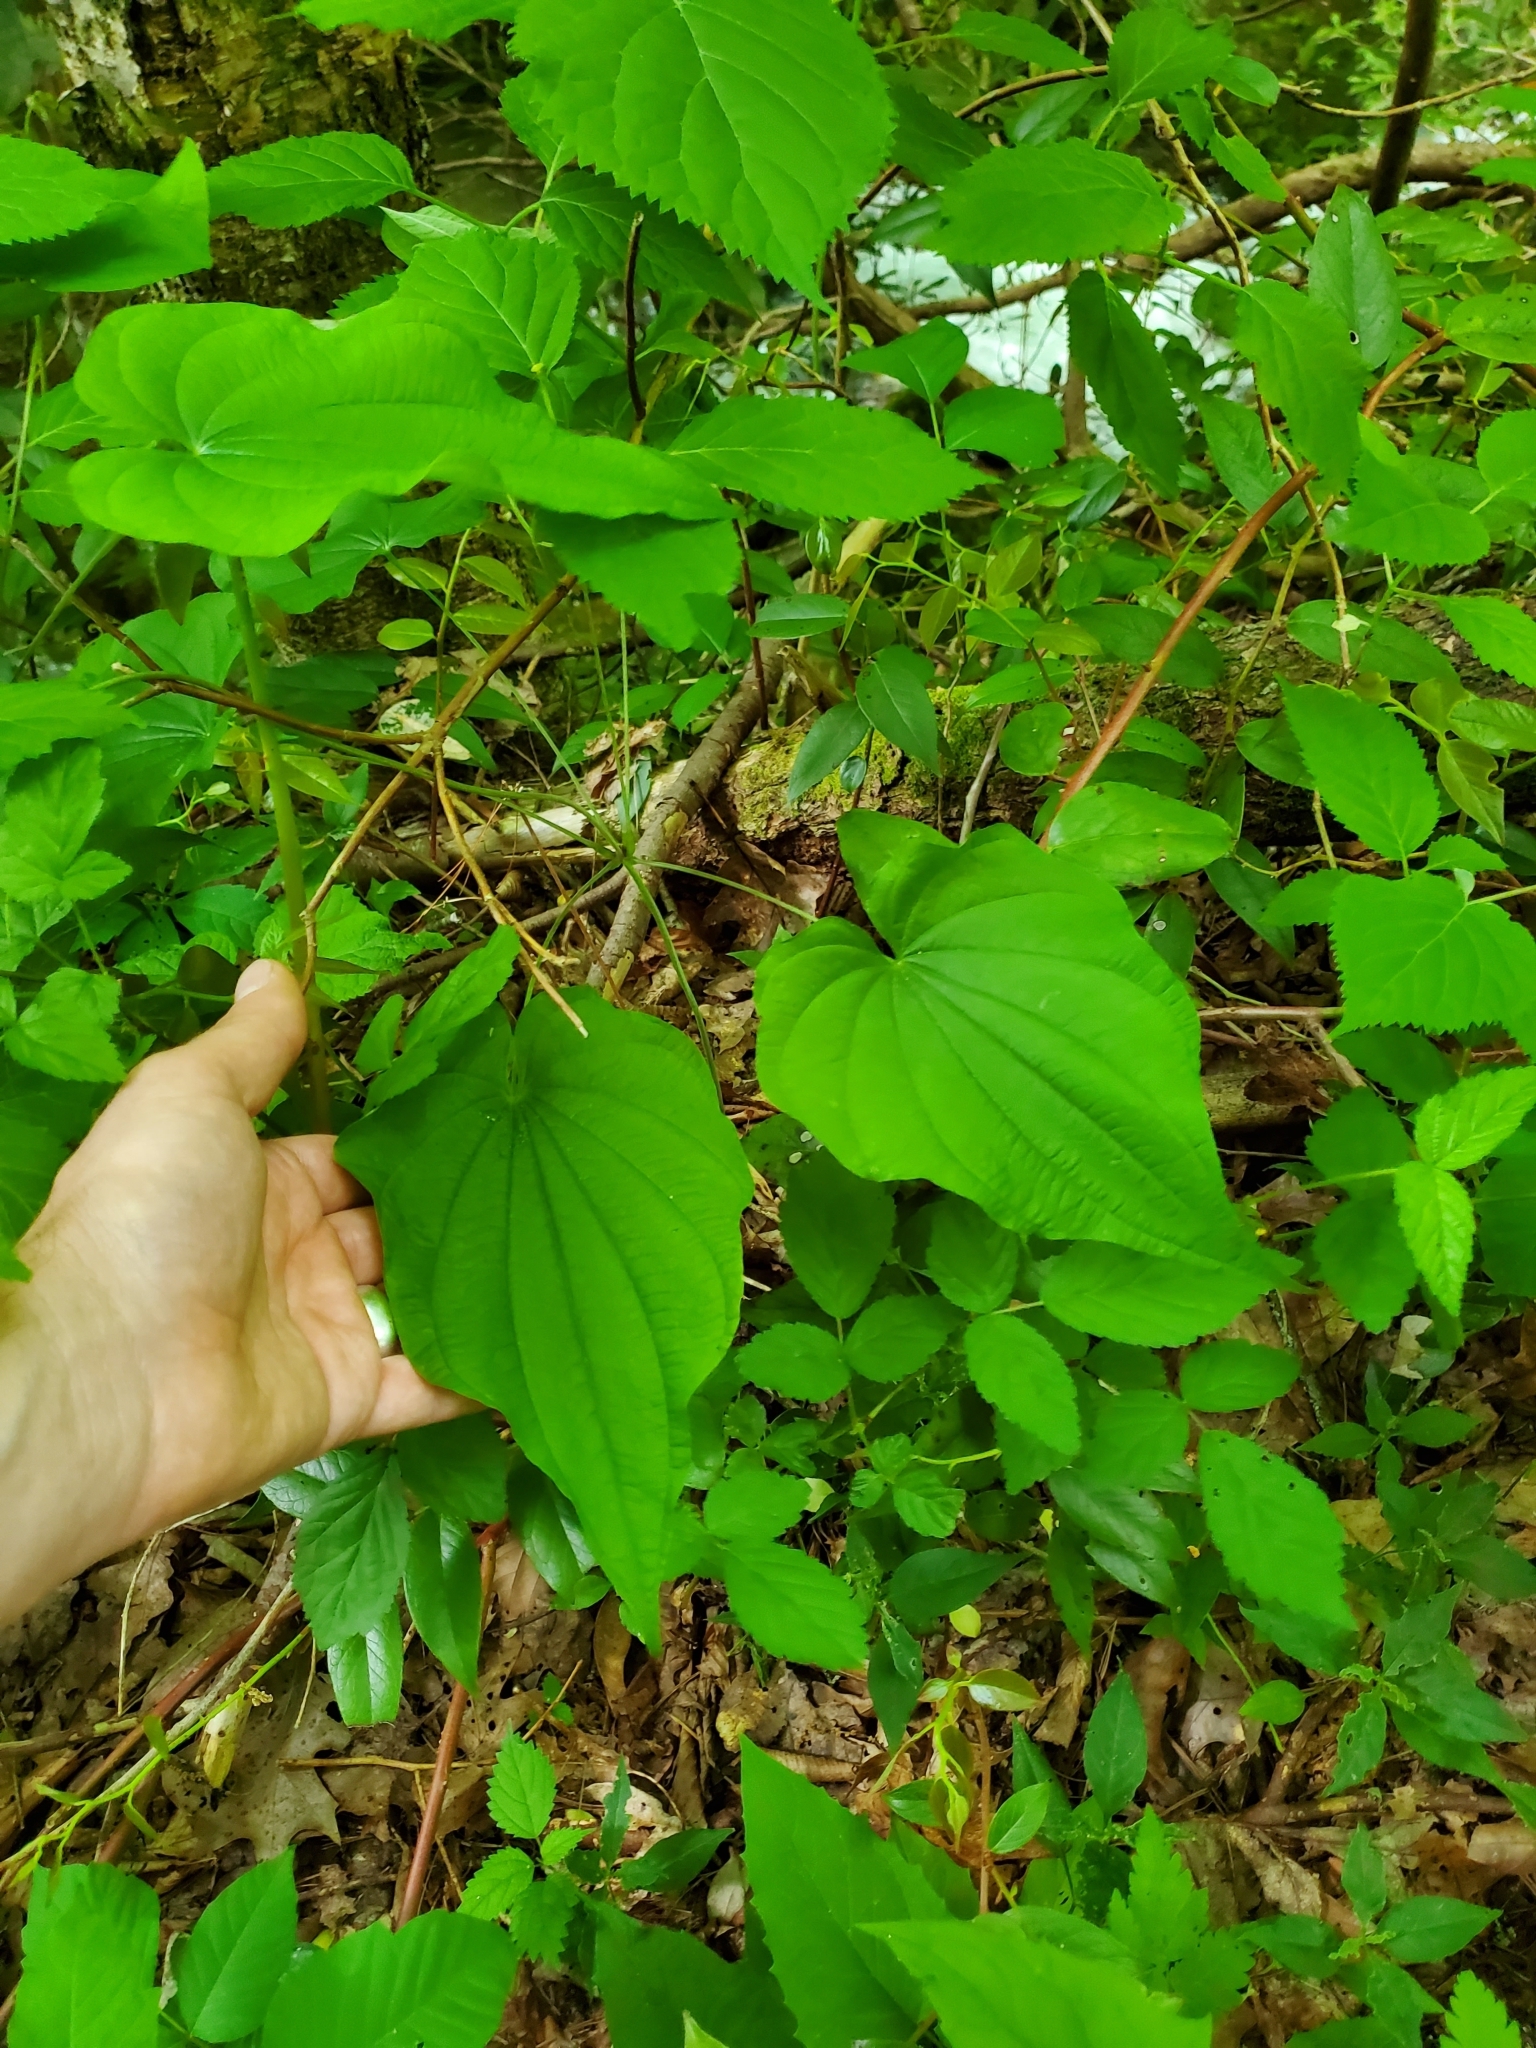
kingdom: Plantae
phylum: Tracheophyta
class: Liliopsida
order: Dioscoreales
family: Dioscoreaceae
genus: Dioscorea
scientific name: Dioscorea villosa
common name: Wild yam
